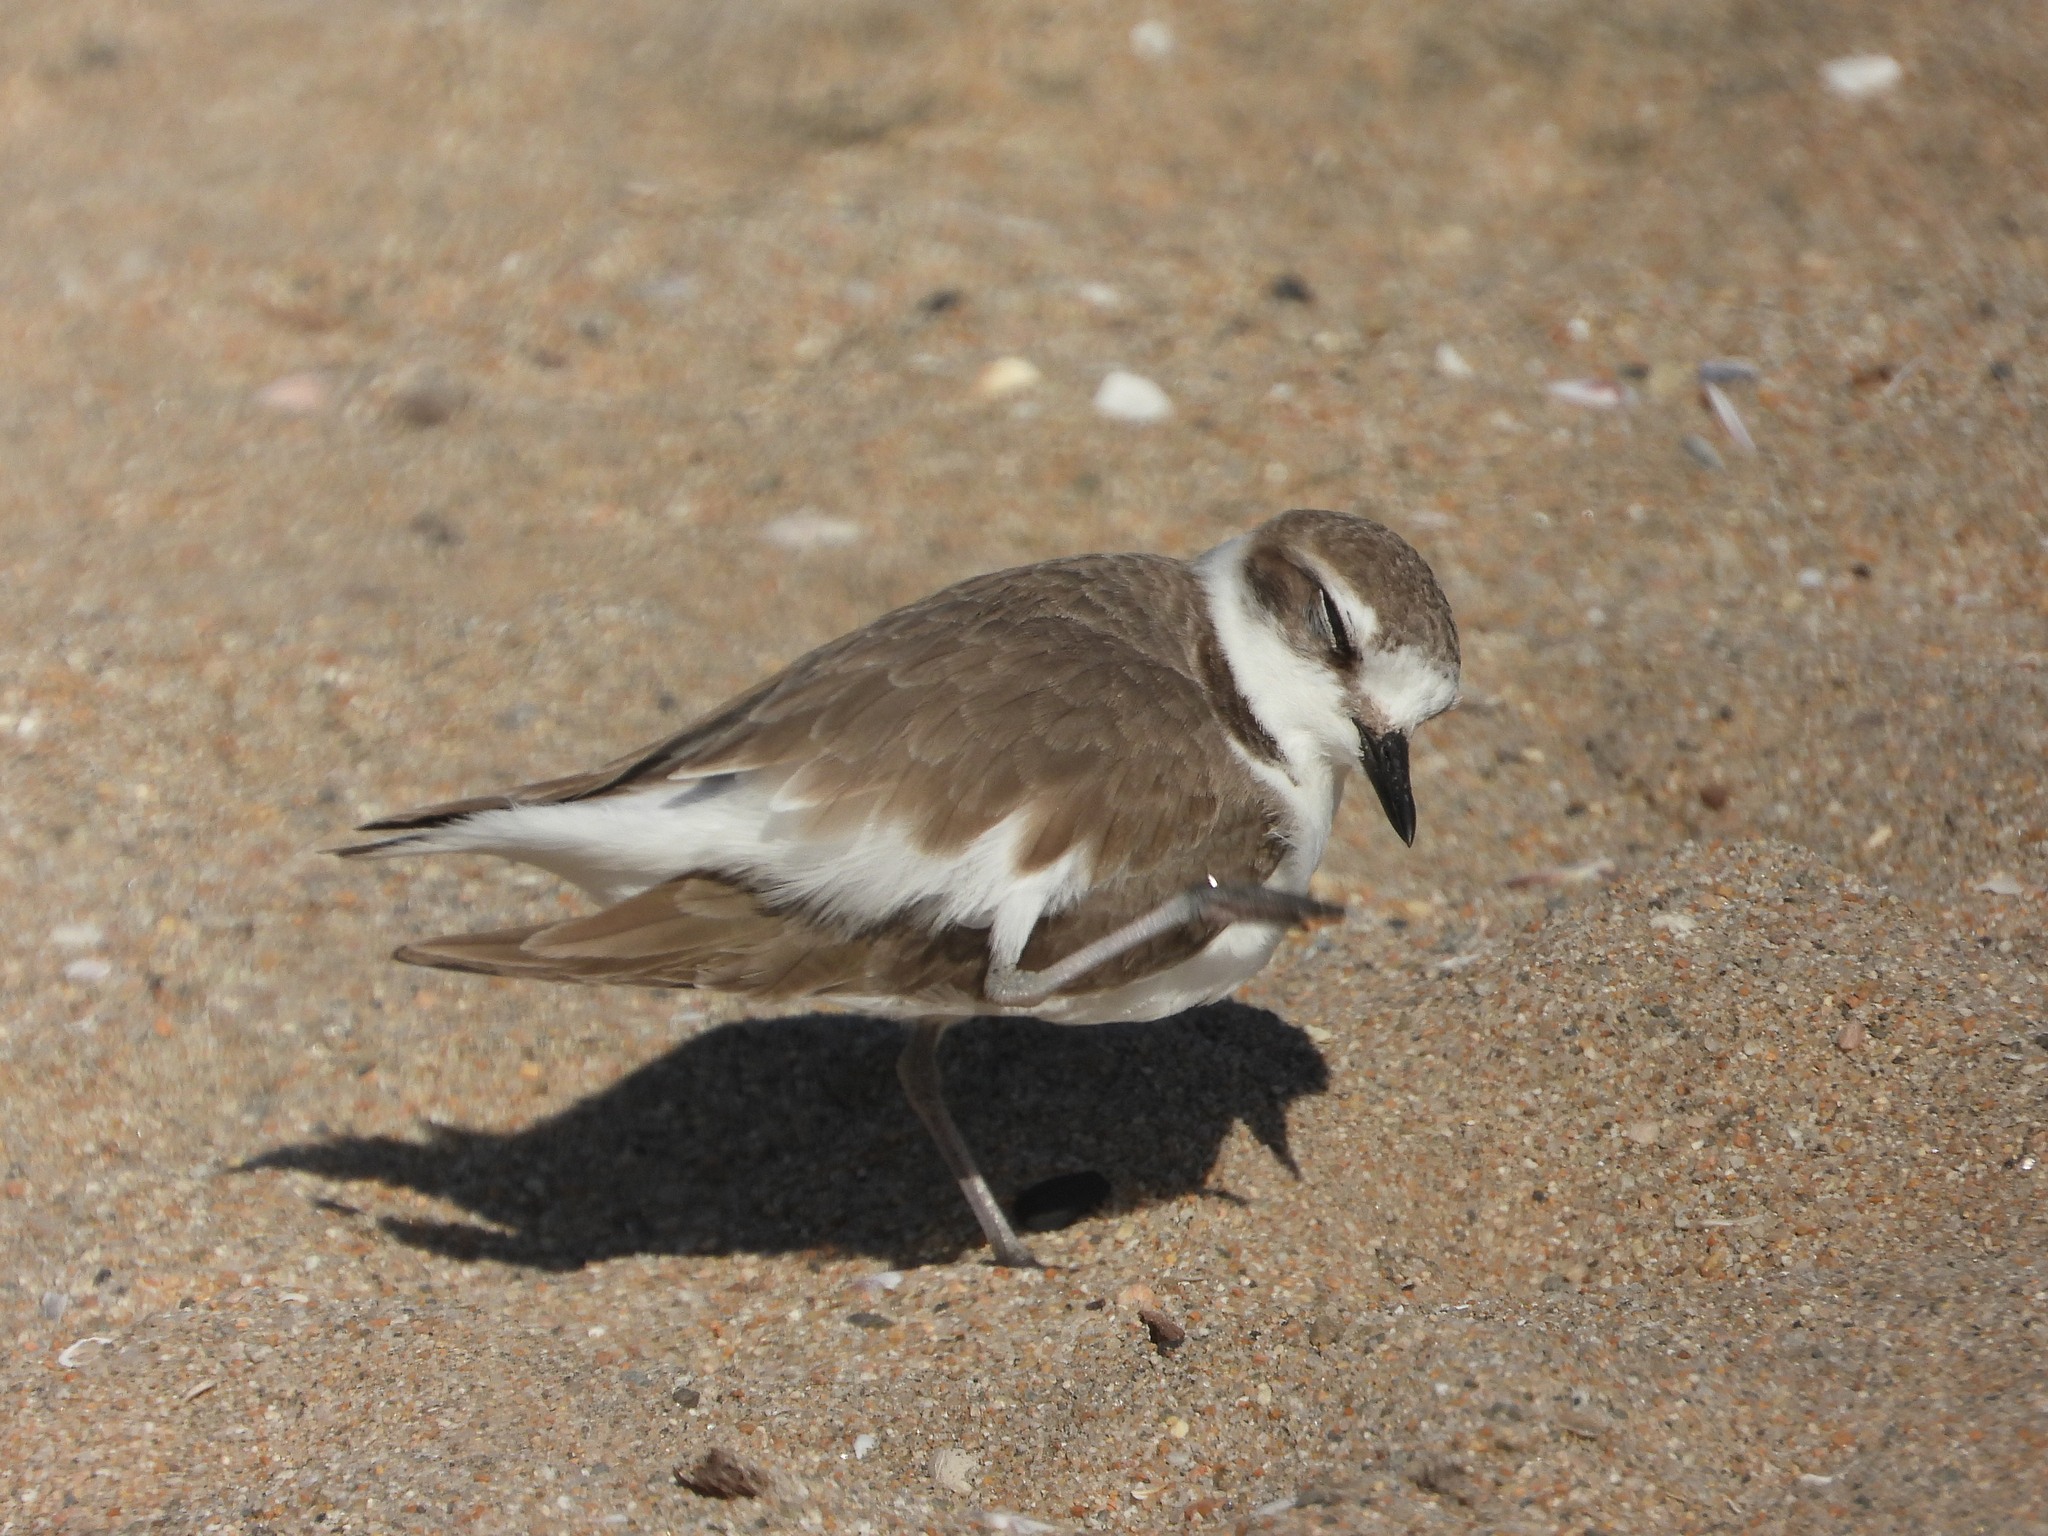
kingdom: Animalia
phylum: Chordata
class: Aves
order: Charadriiformes
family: Charadriidae
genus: Anarhynchus
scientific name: Anarhynchus
